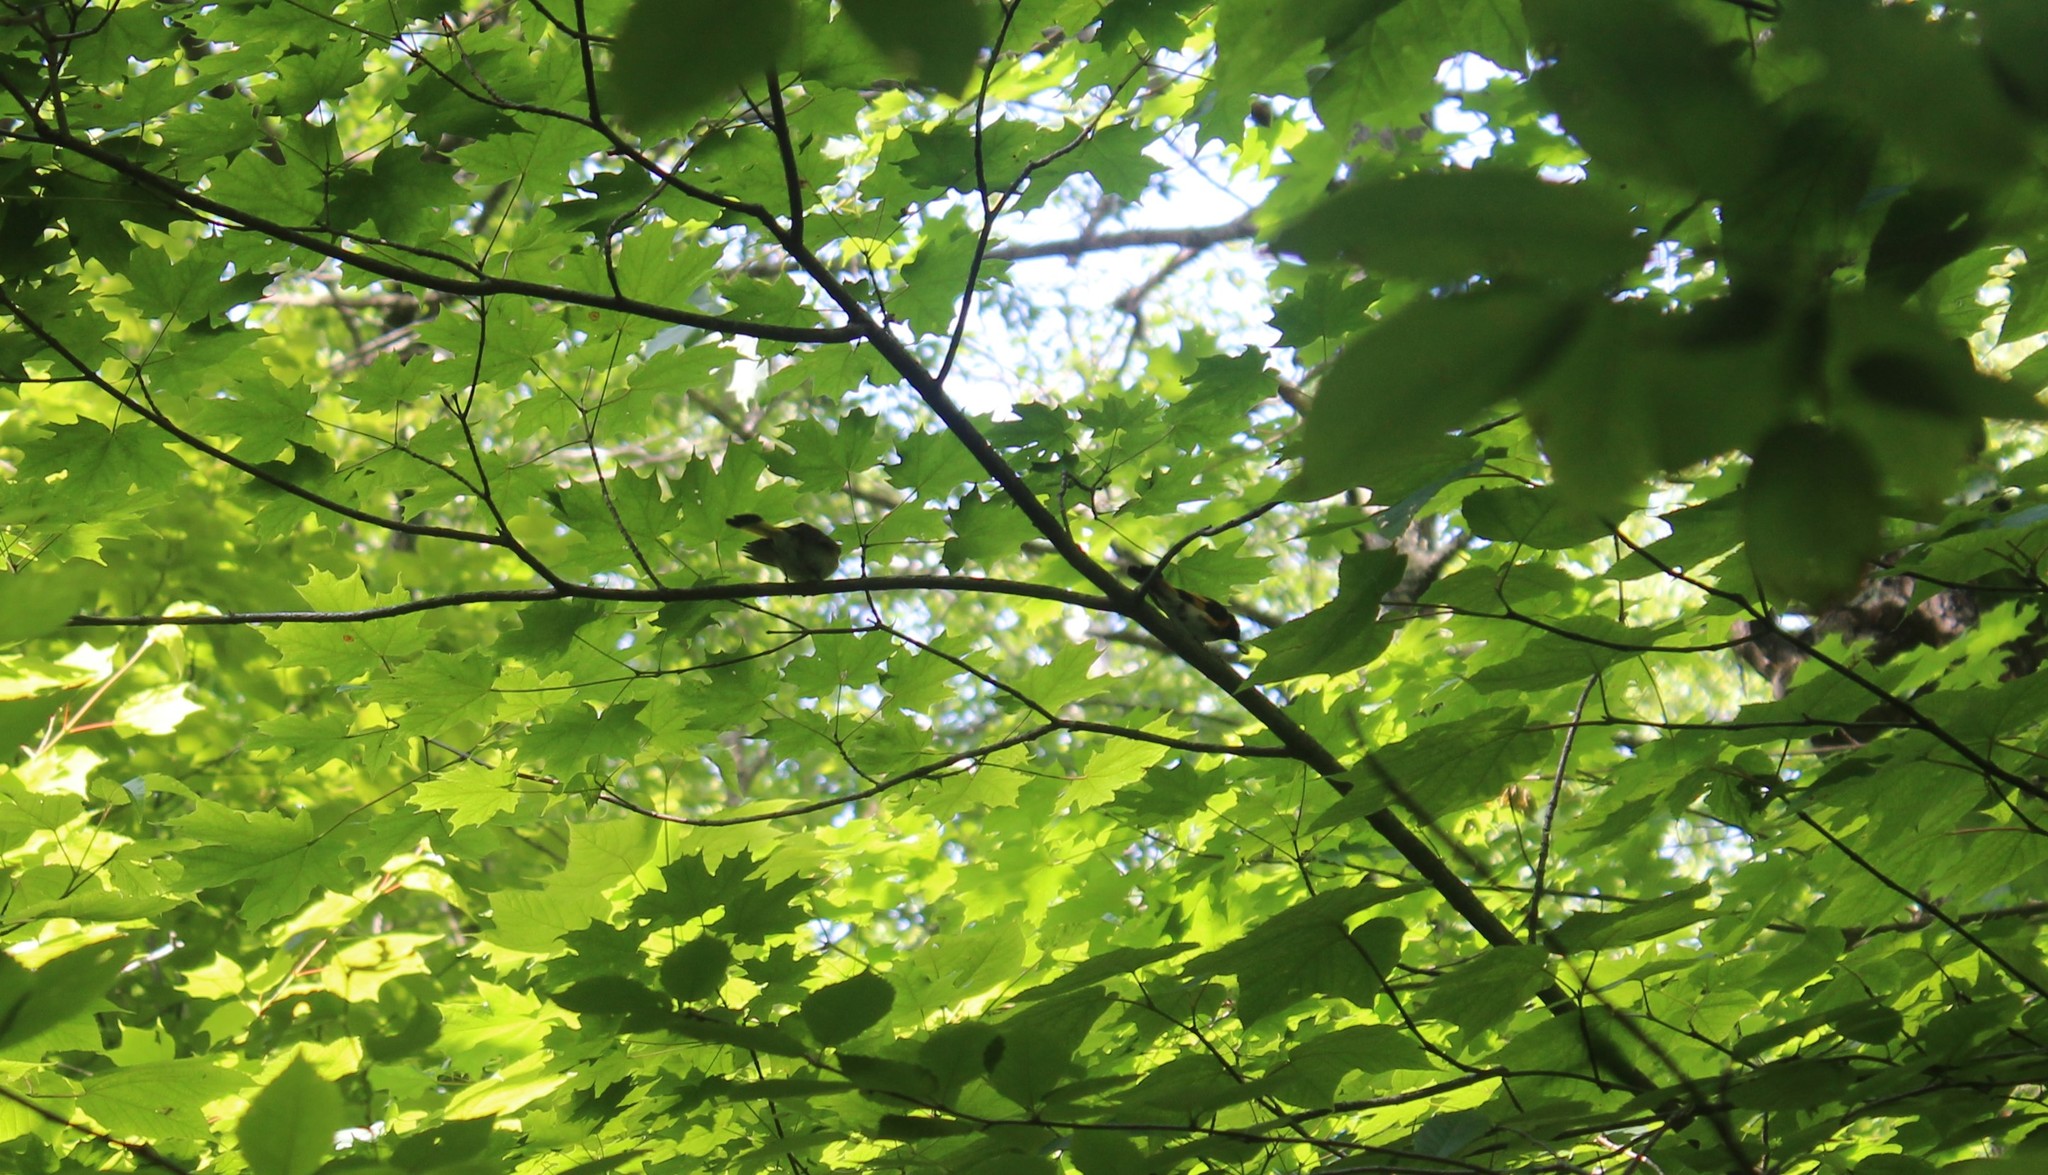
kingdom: Animalia
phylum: Chordata
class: Aves
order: Passeriformes
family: Parulidae
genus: Setophaga
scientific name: Setophaga ruticilla
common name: American redstart
